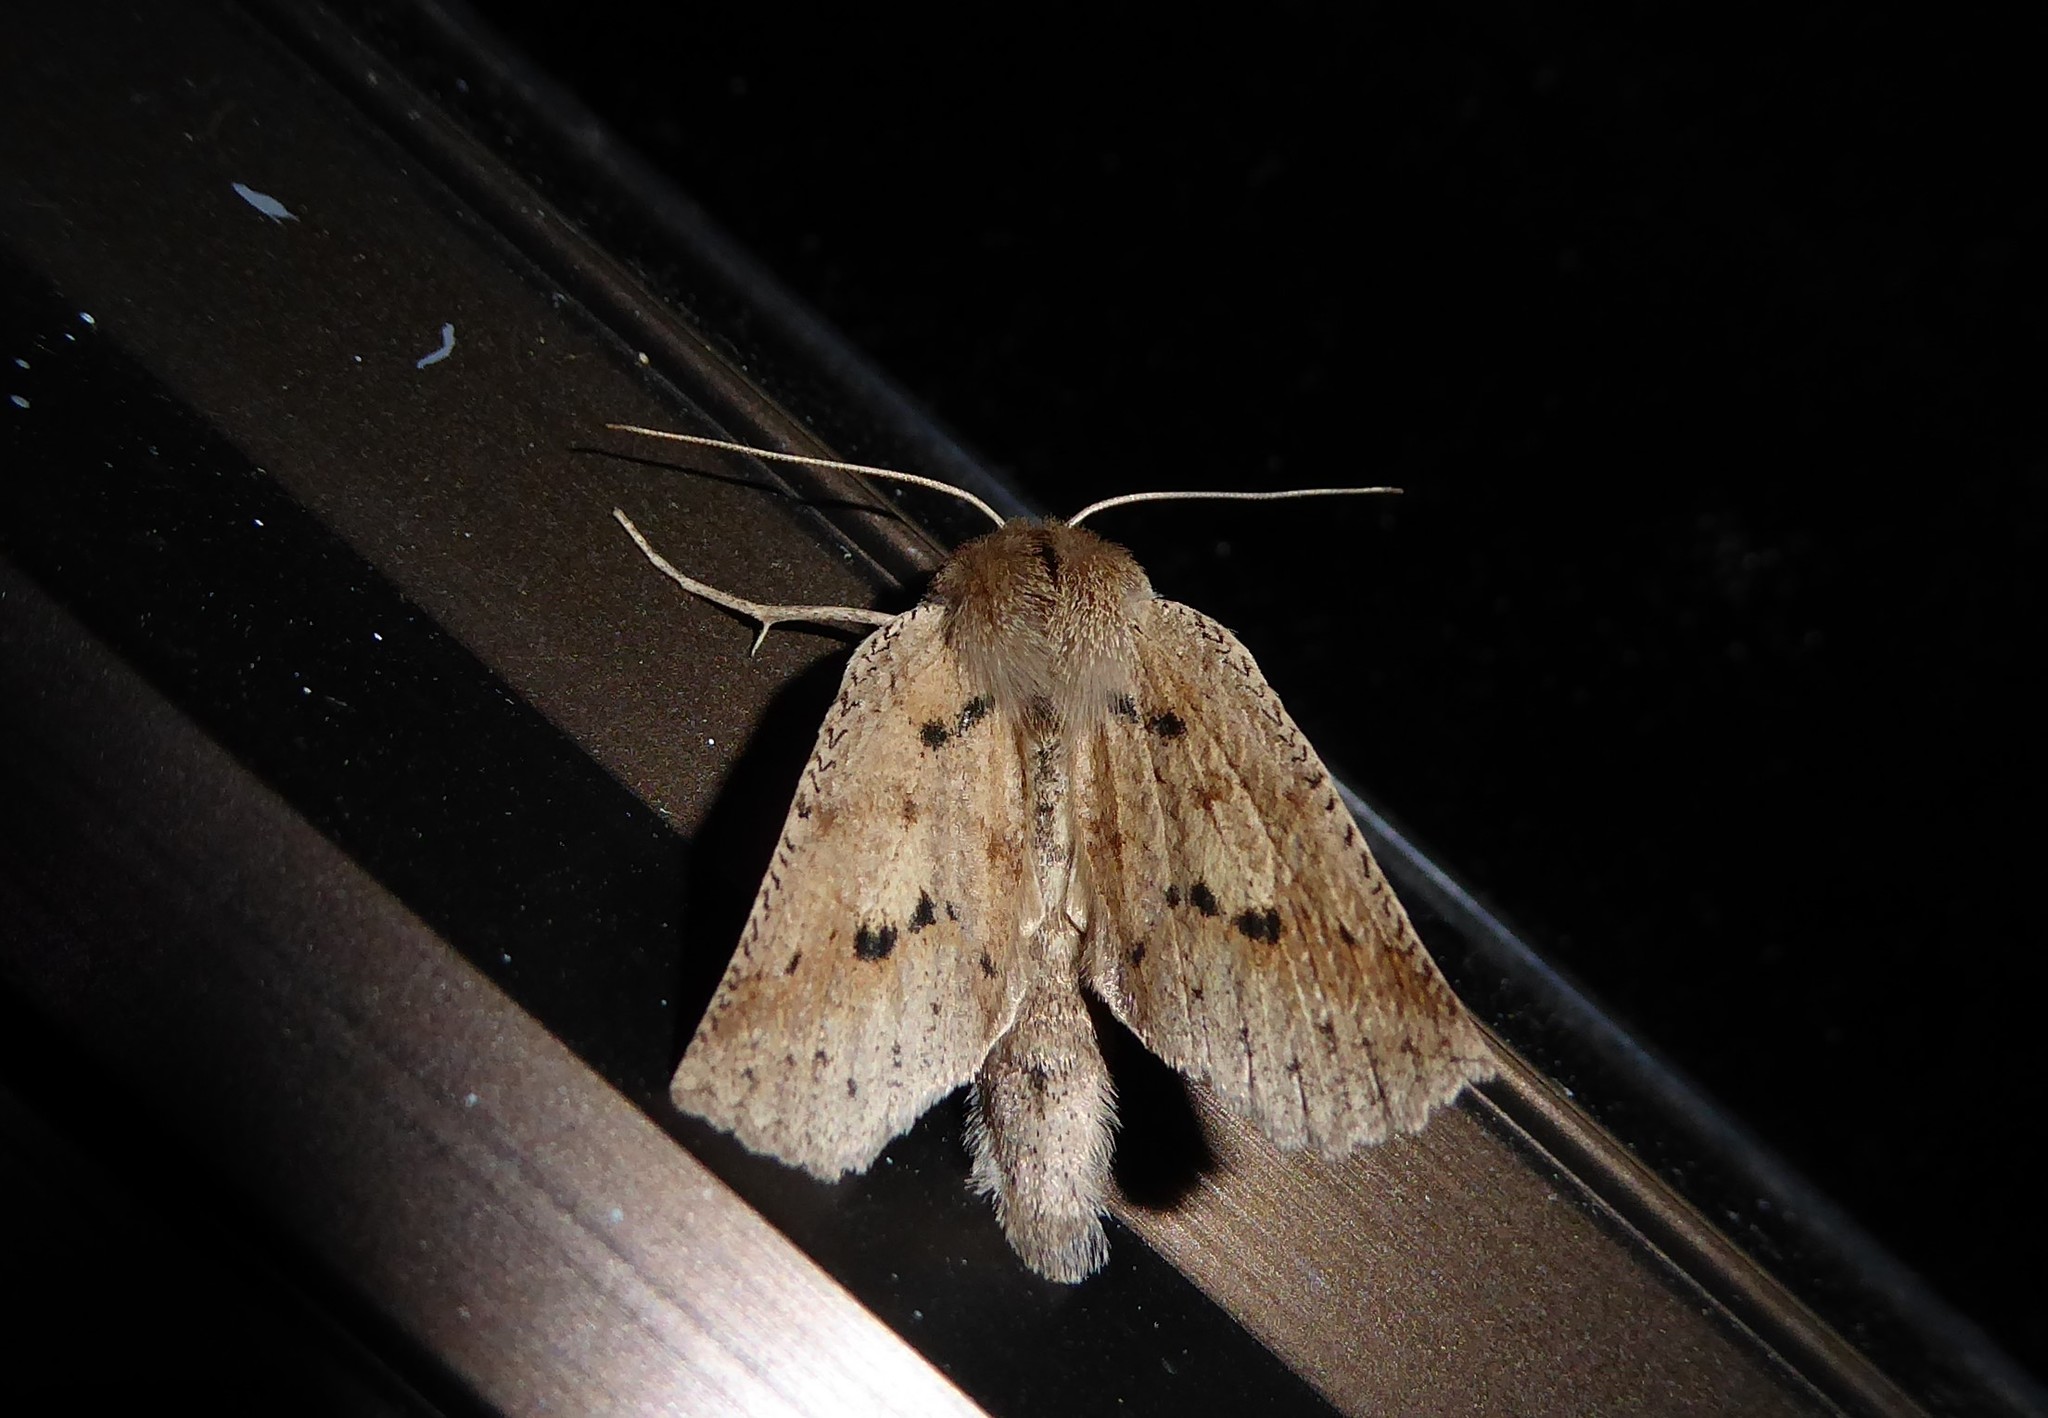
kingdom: Animalia
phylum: Arthropoda
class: Insecta
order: Lepidoptera
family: Geometridae
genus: Declana
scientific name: Declana leptomera
